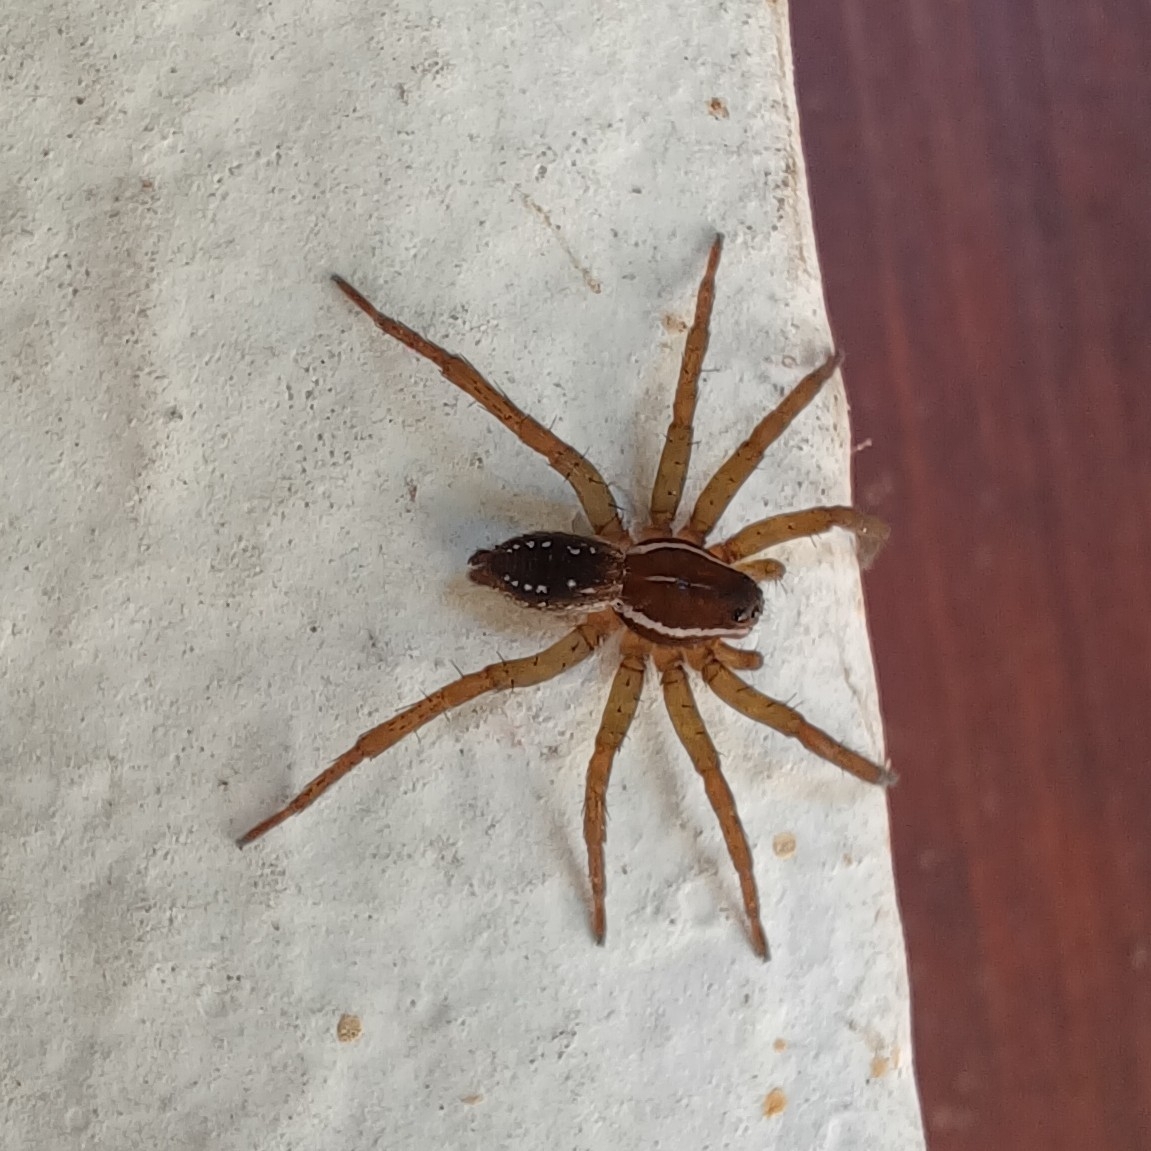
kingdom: Animalia
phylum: Arthropoda
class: Arachnida
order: Araneae
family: Lycosidae
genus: Diapontia
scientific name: Diapontia uruguayensis
